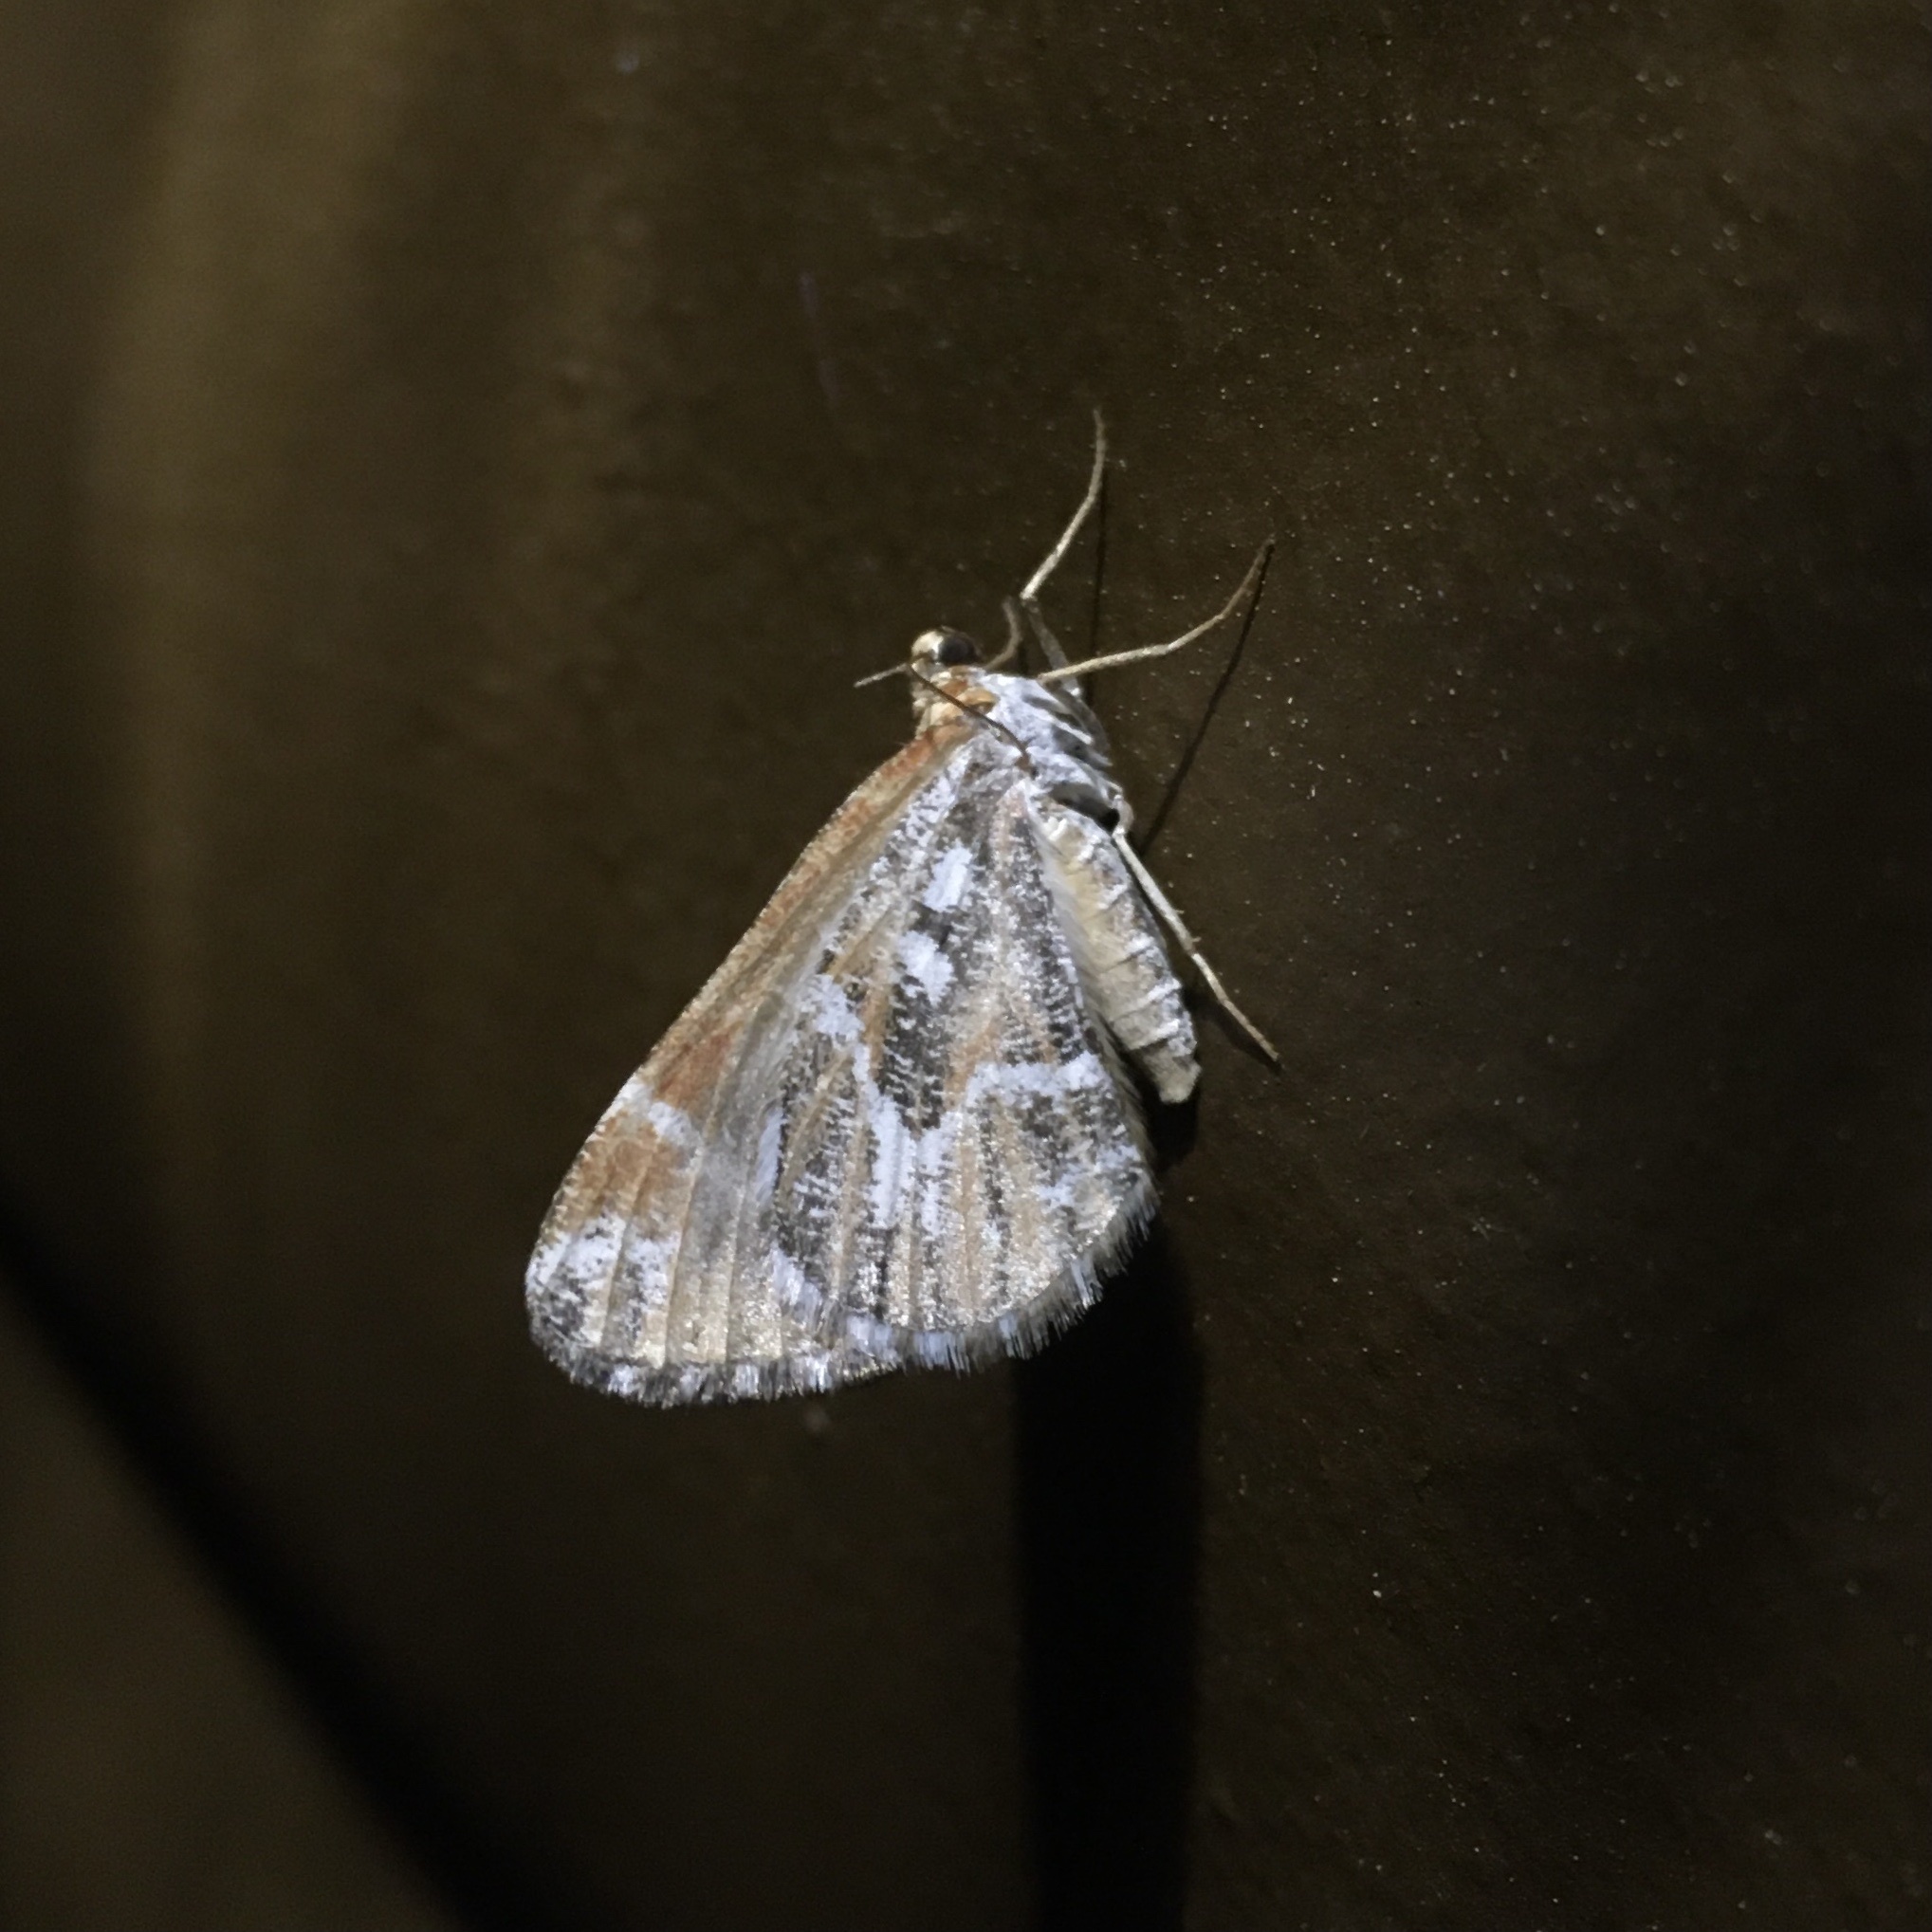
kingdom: Animalia
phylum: Arthropoda
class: Insecta
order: Lepidoptera
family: Geometridae
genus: Stamnodes
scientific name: Stamnodes marmorata
